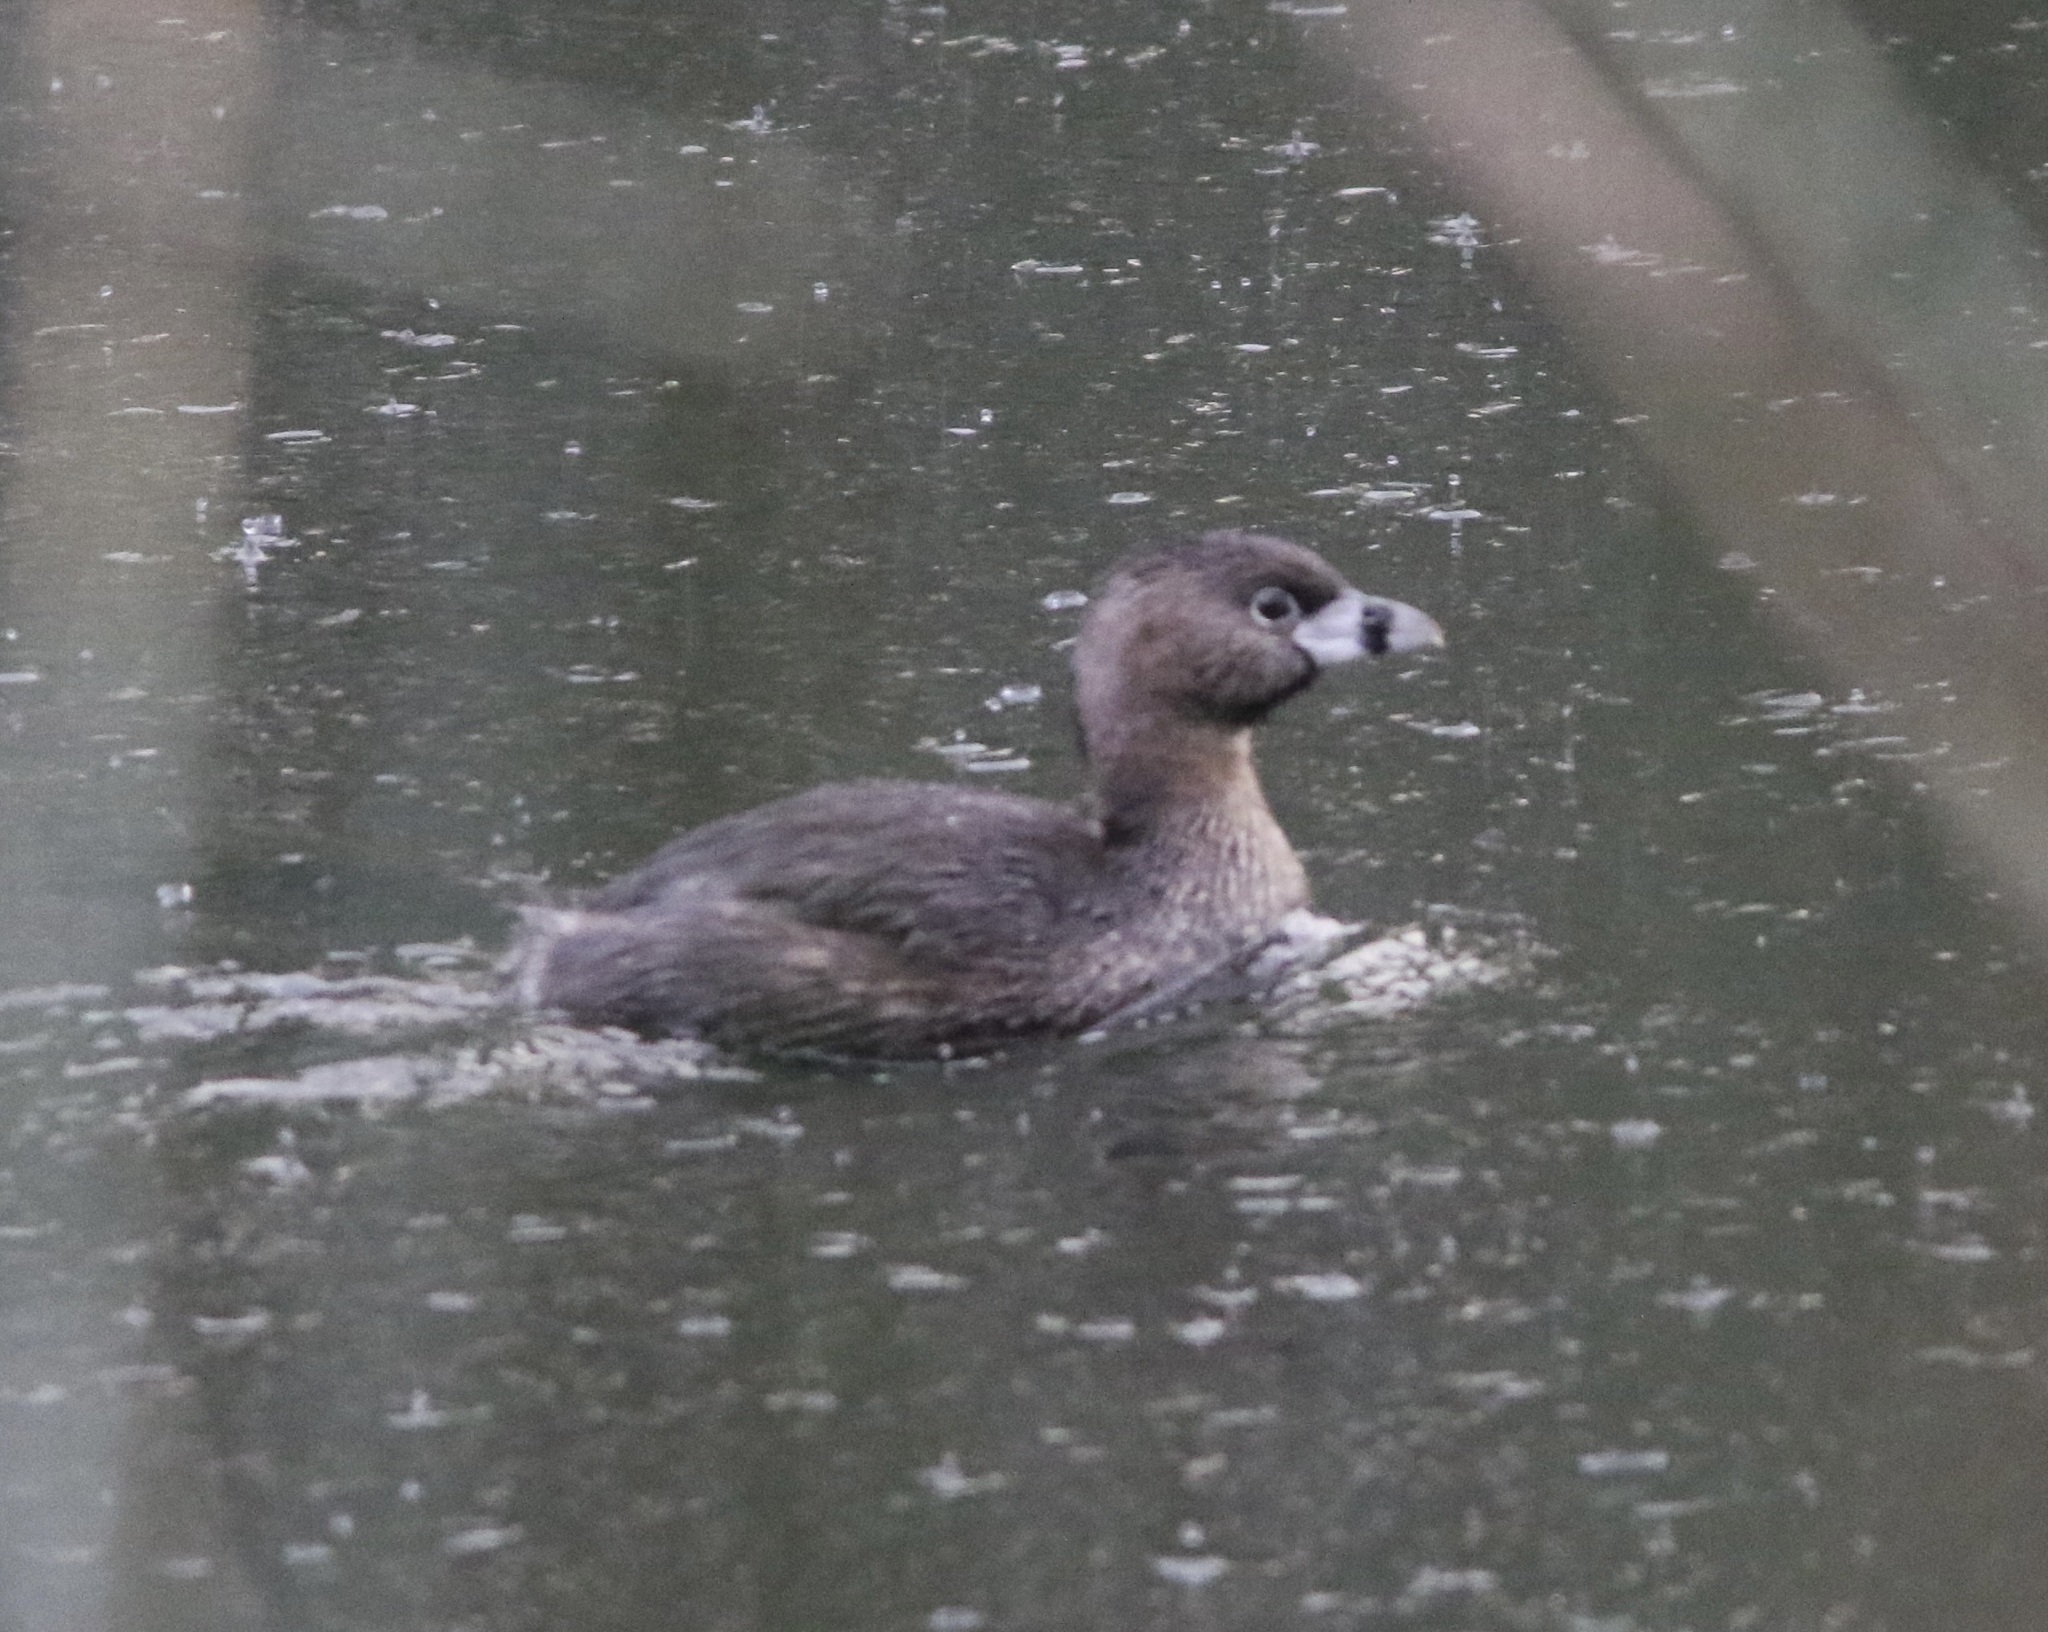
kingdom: Animalia
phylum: Chordata
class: Aves
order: Podicipediformes
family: Podicipedidae
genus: Podilymbus
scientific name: Podilymbus podiceps
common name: Pied-billed grebe
